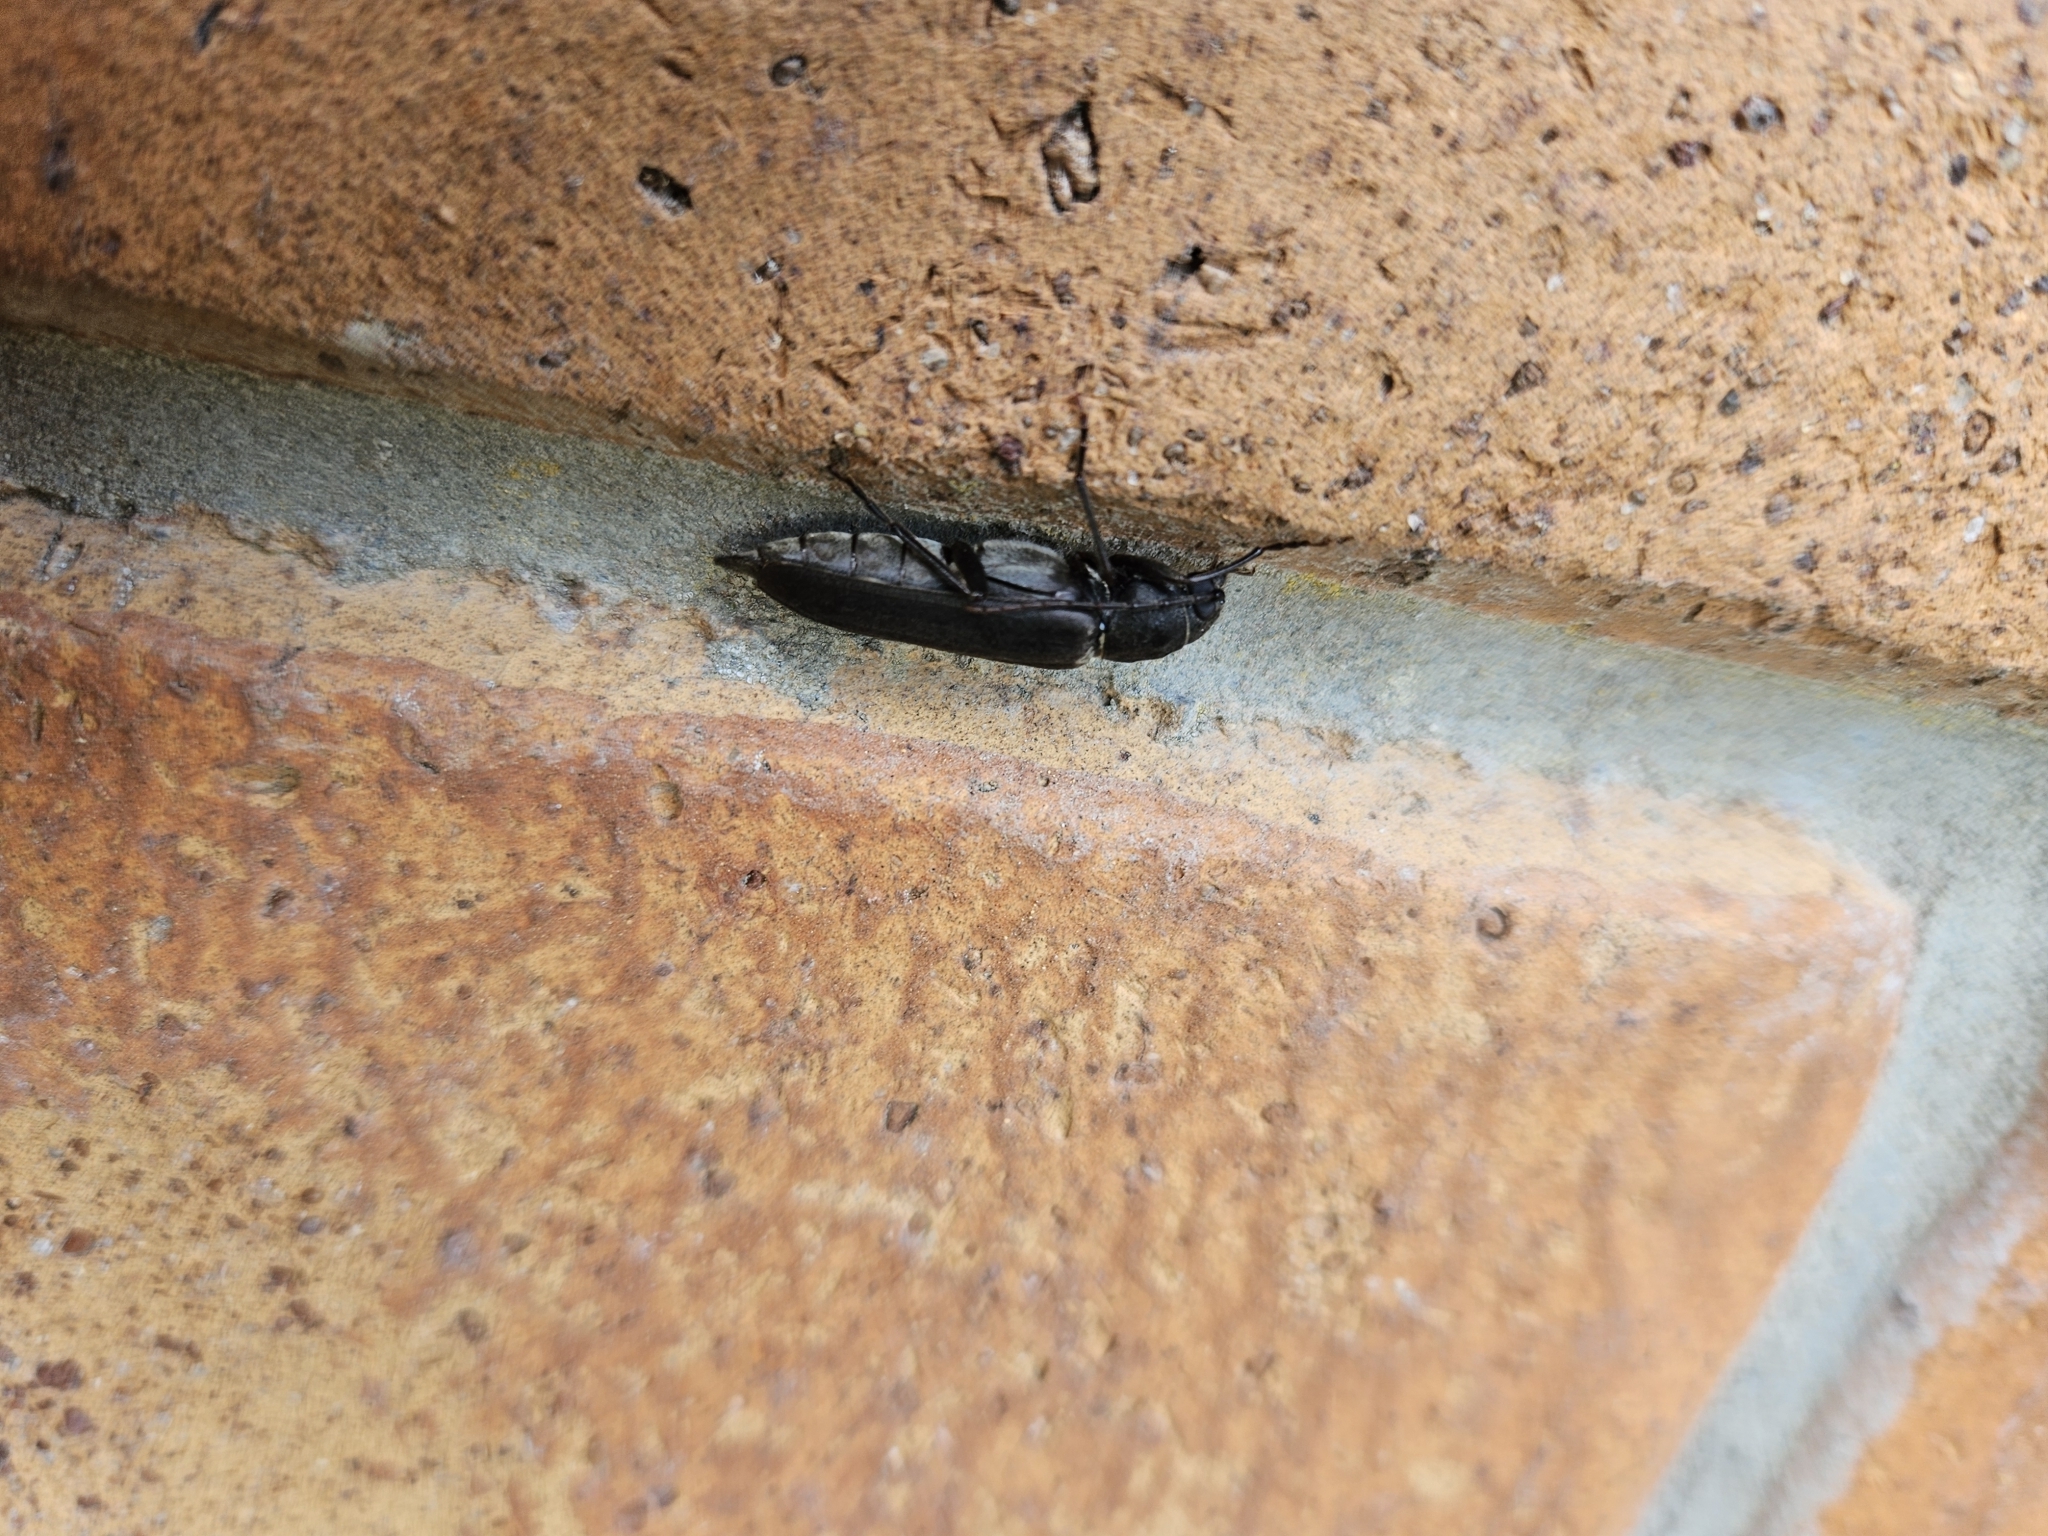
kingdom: Animalia
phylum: Arthropoda
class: Insecta
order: Coleoptera
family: Cerambycidae
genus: Arhopalus
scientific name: Arhopalus ferus
